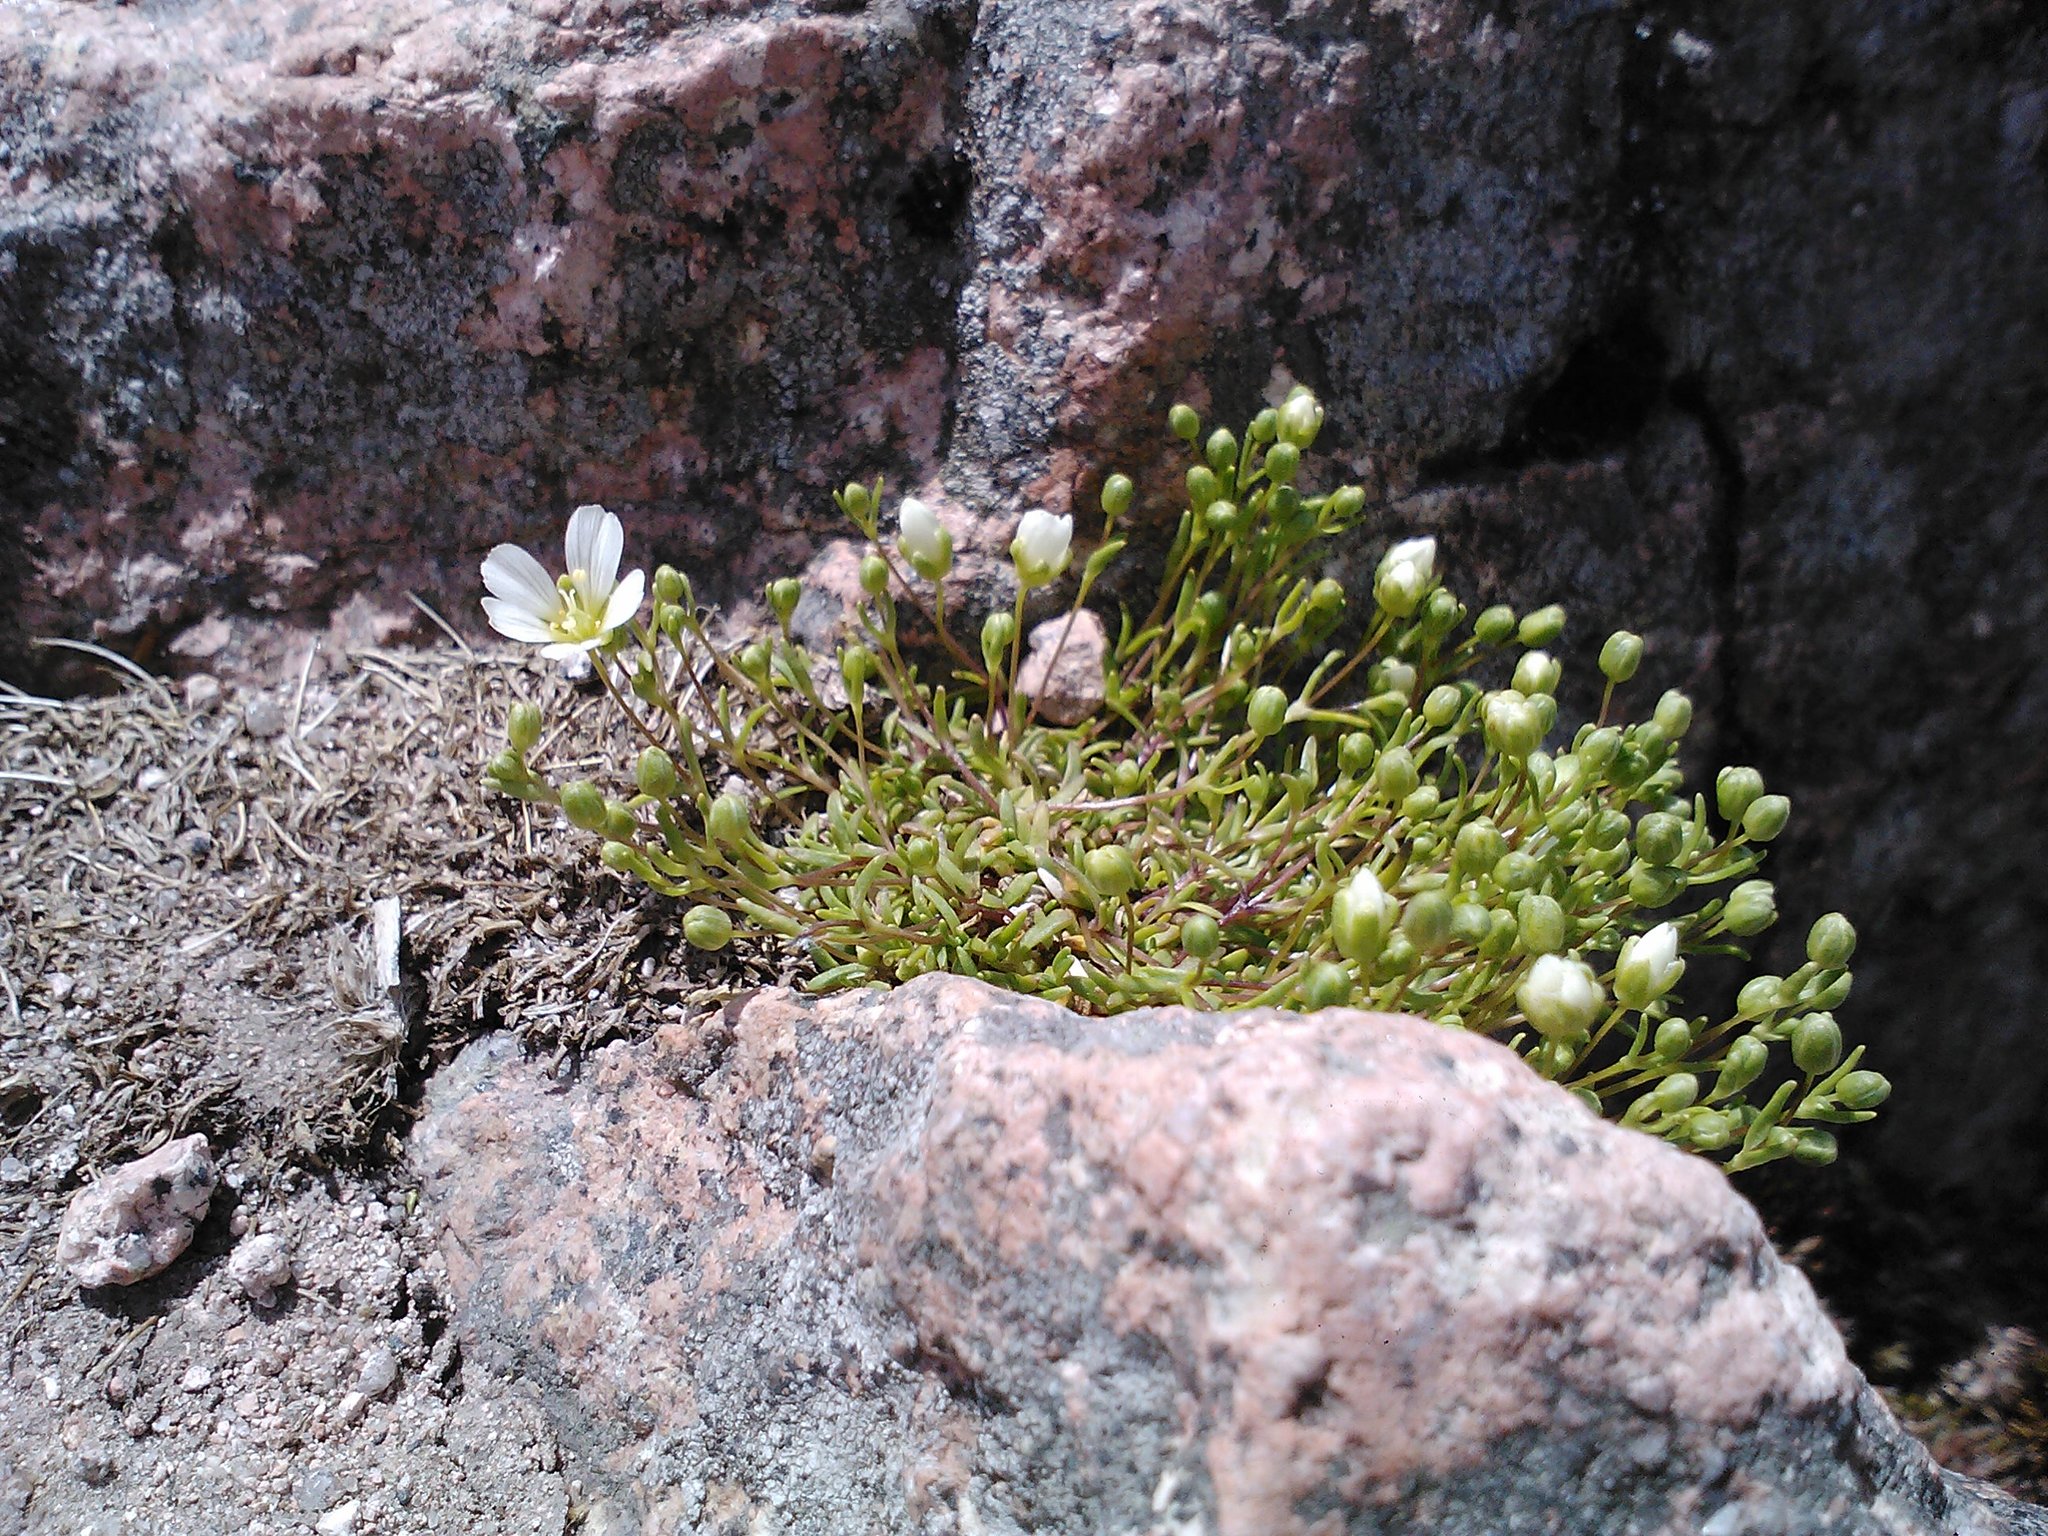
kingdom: Plantae
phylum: Tracheophyta
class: Magnoliopsida
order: Caryophyllales
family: Caryophyllaceae
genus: Geocarpon
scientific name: Geocarpon groenlandicum
